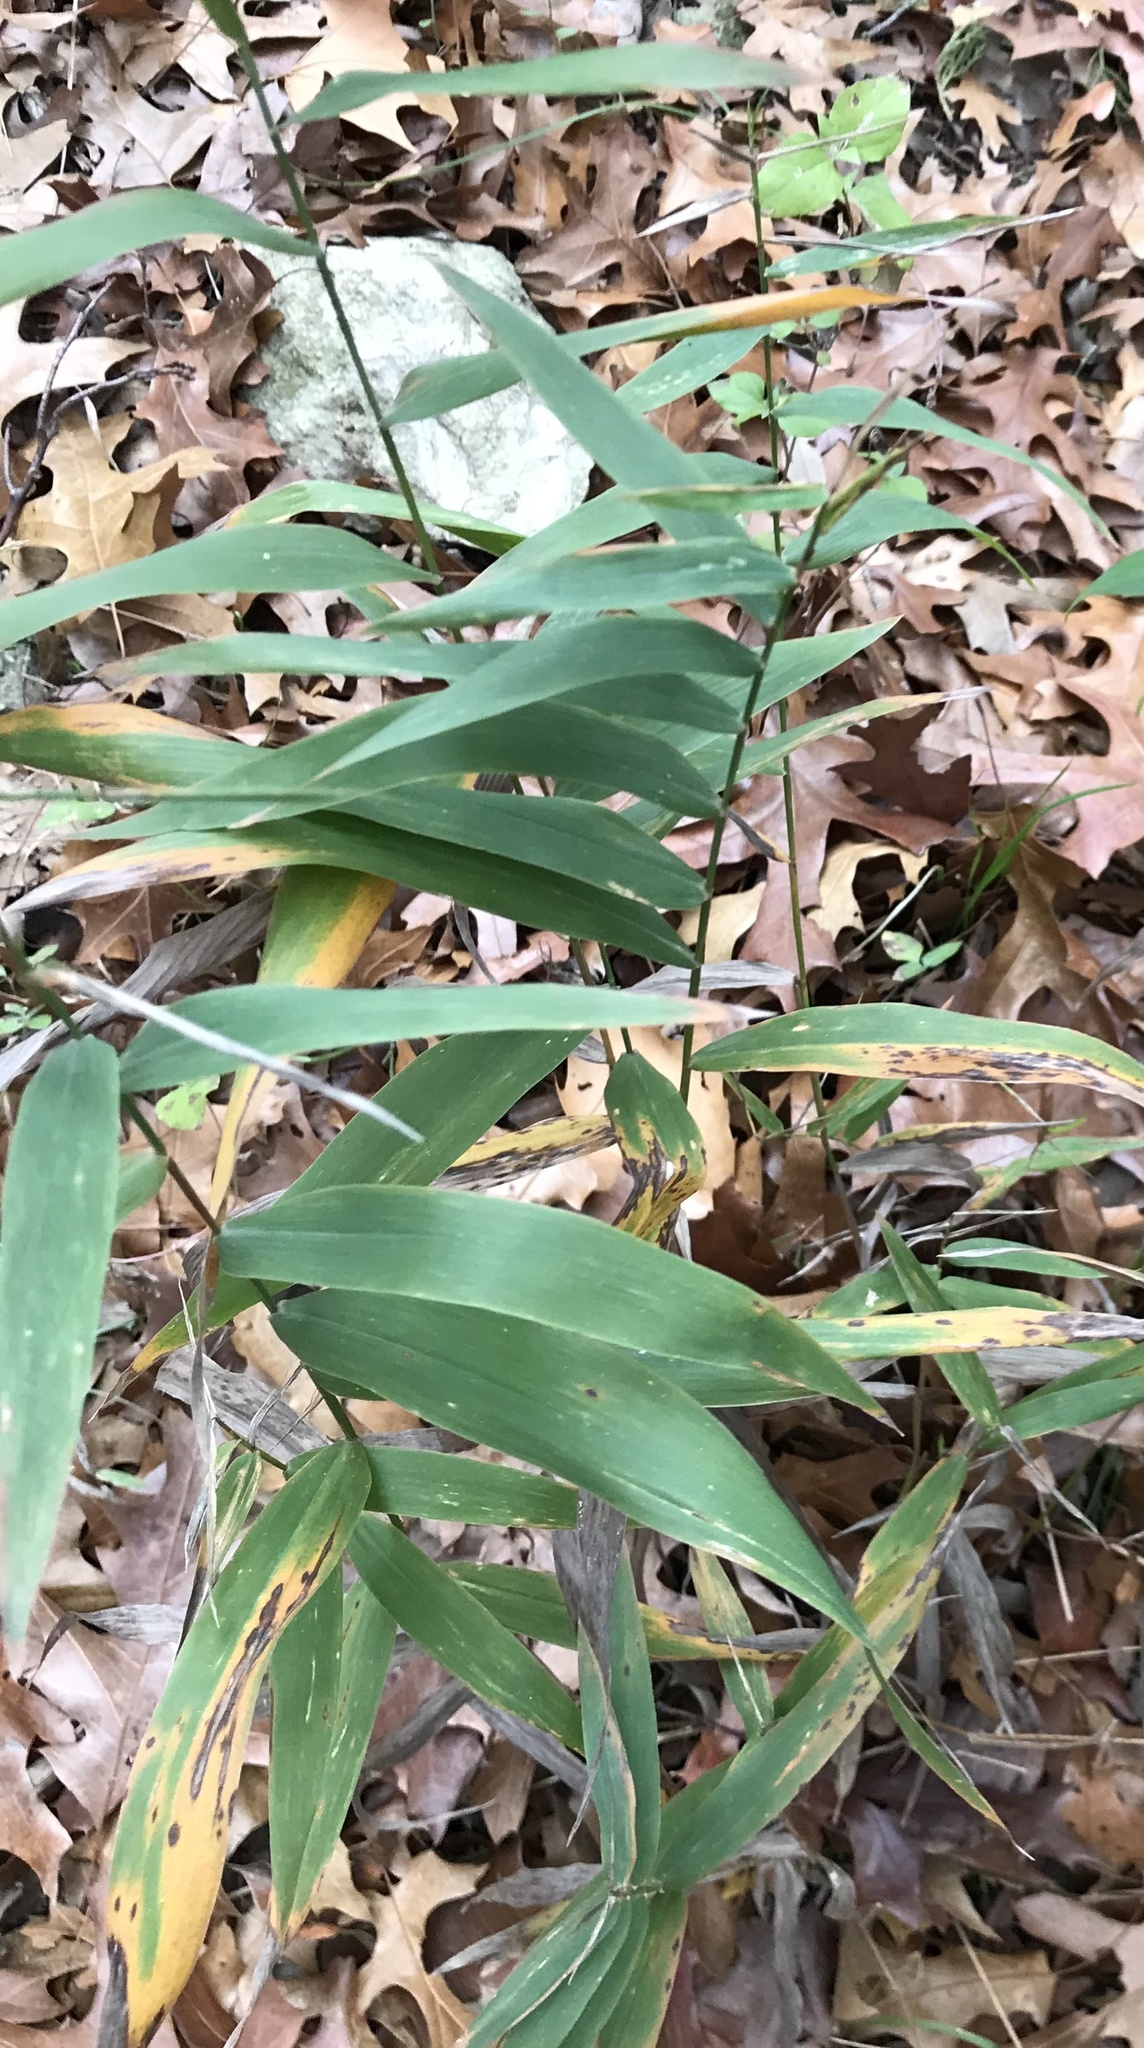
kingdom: Plantae
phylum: Tracheophyta
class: Liliopsida
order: Poales
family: Poaceae
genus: Chasmanthium
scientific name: Chasmanthium latifolium
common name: Broad-leaved chasmanthium
